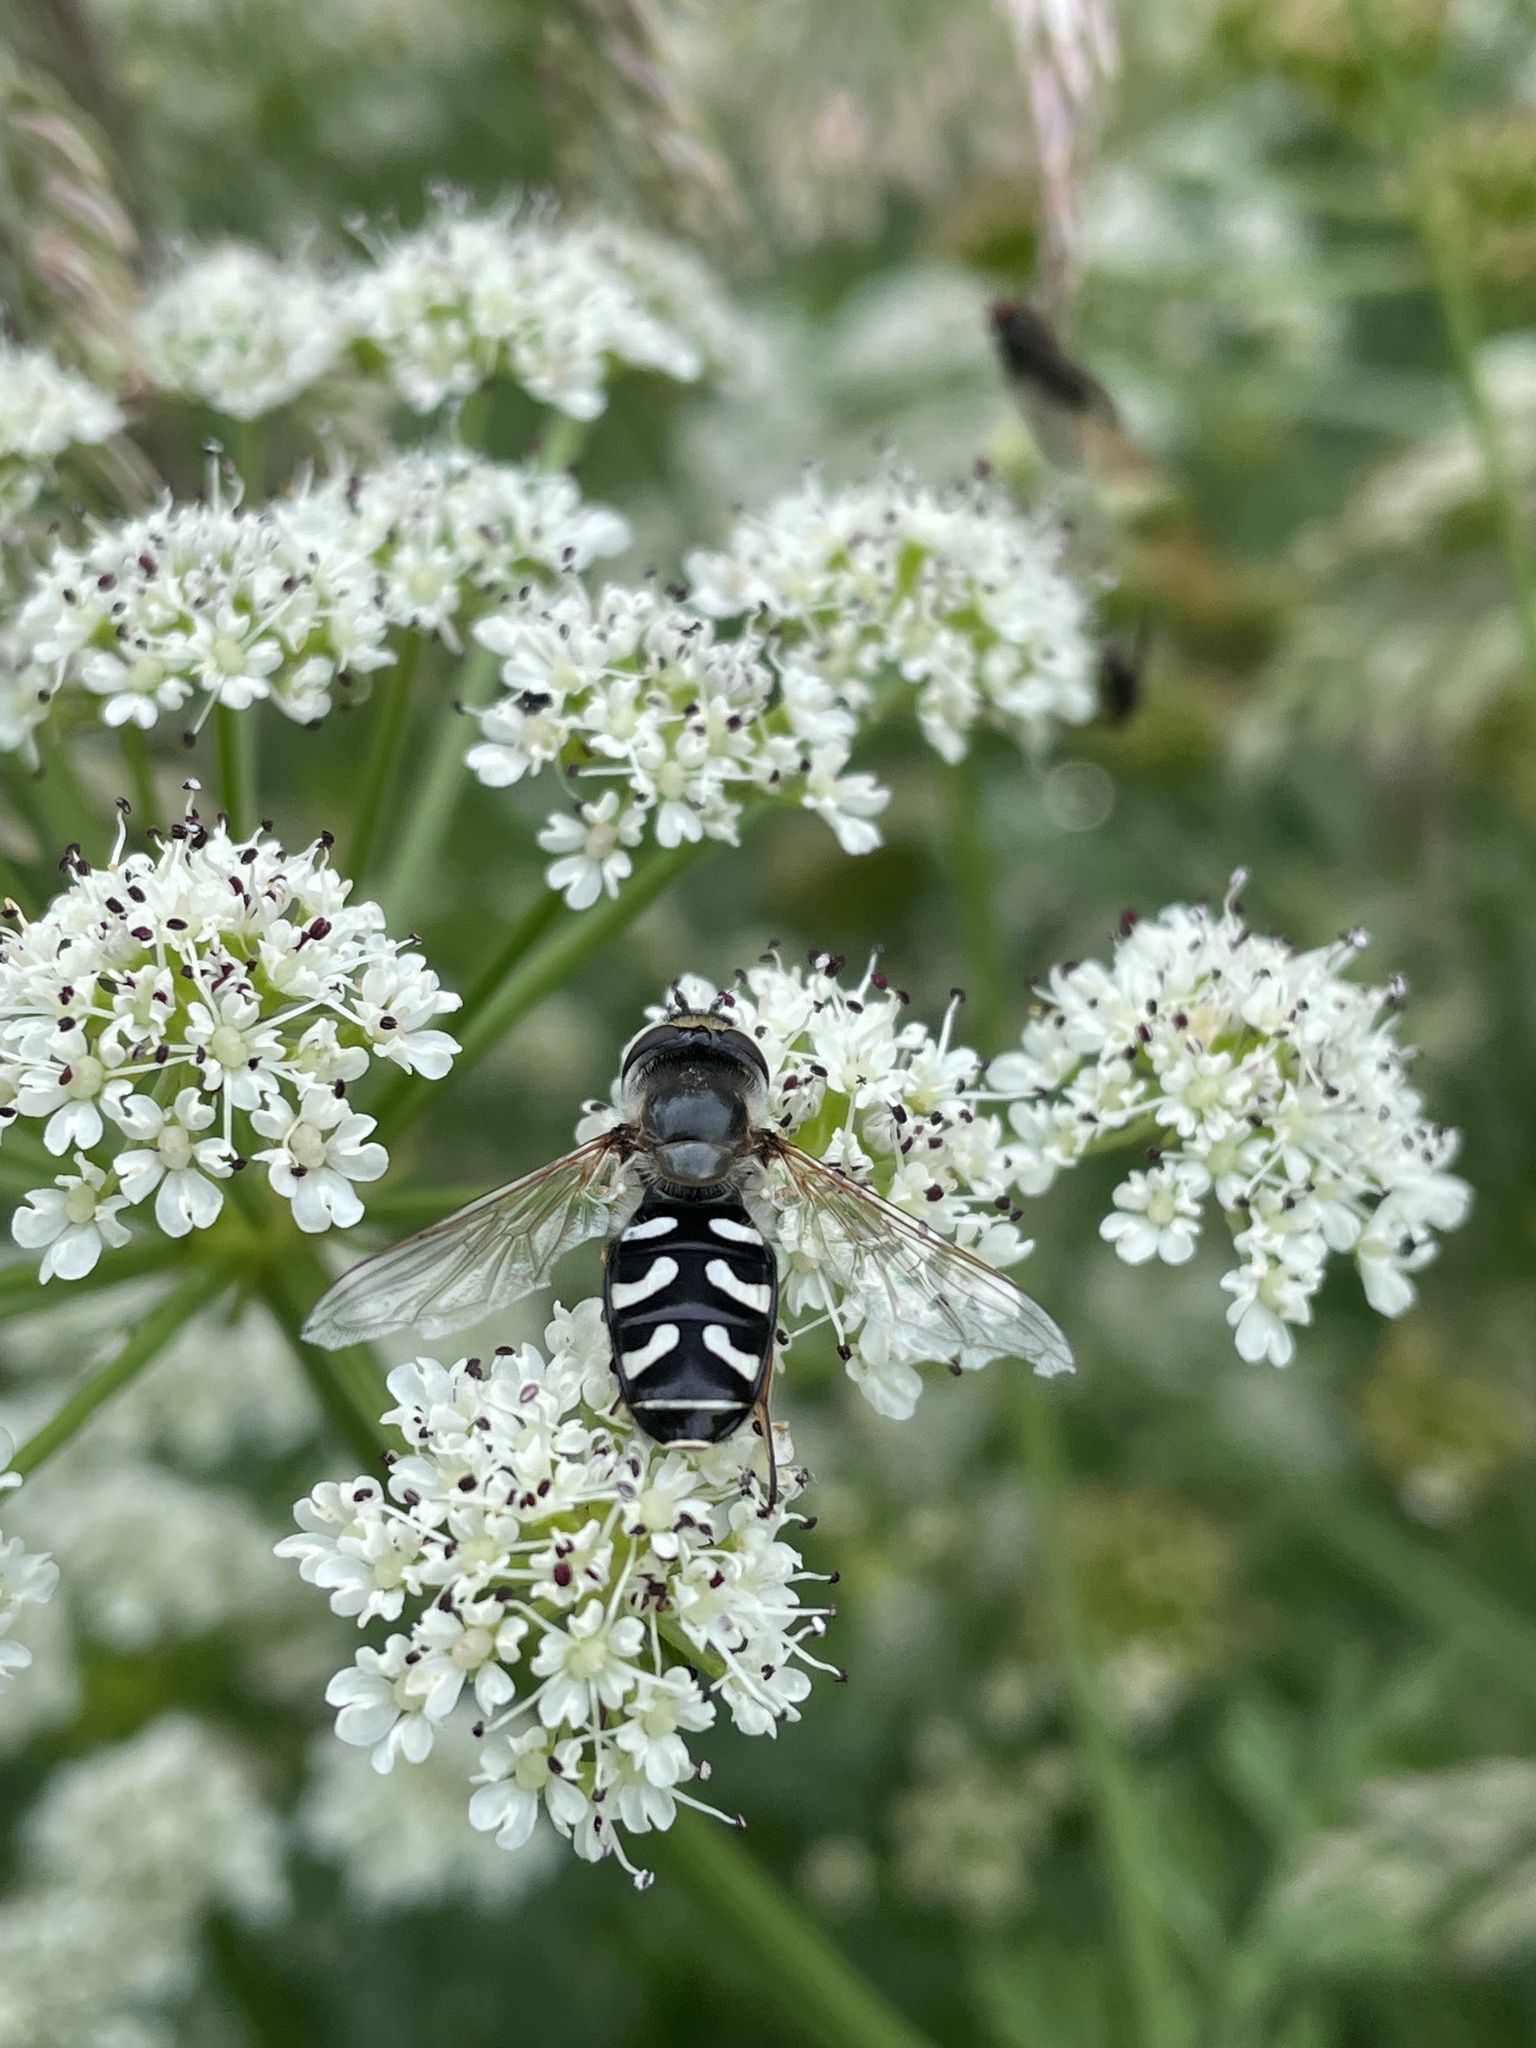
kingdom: Animalia
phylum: Arthropoda
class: Insecta
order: Diptera
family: Syrphidae
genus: Scaeva
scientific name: Scaeva pyrastri
